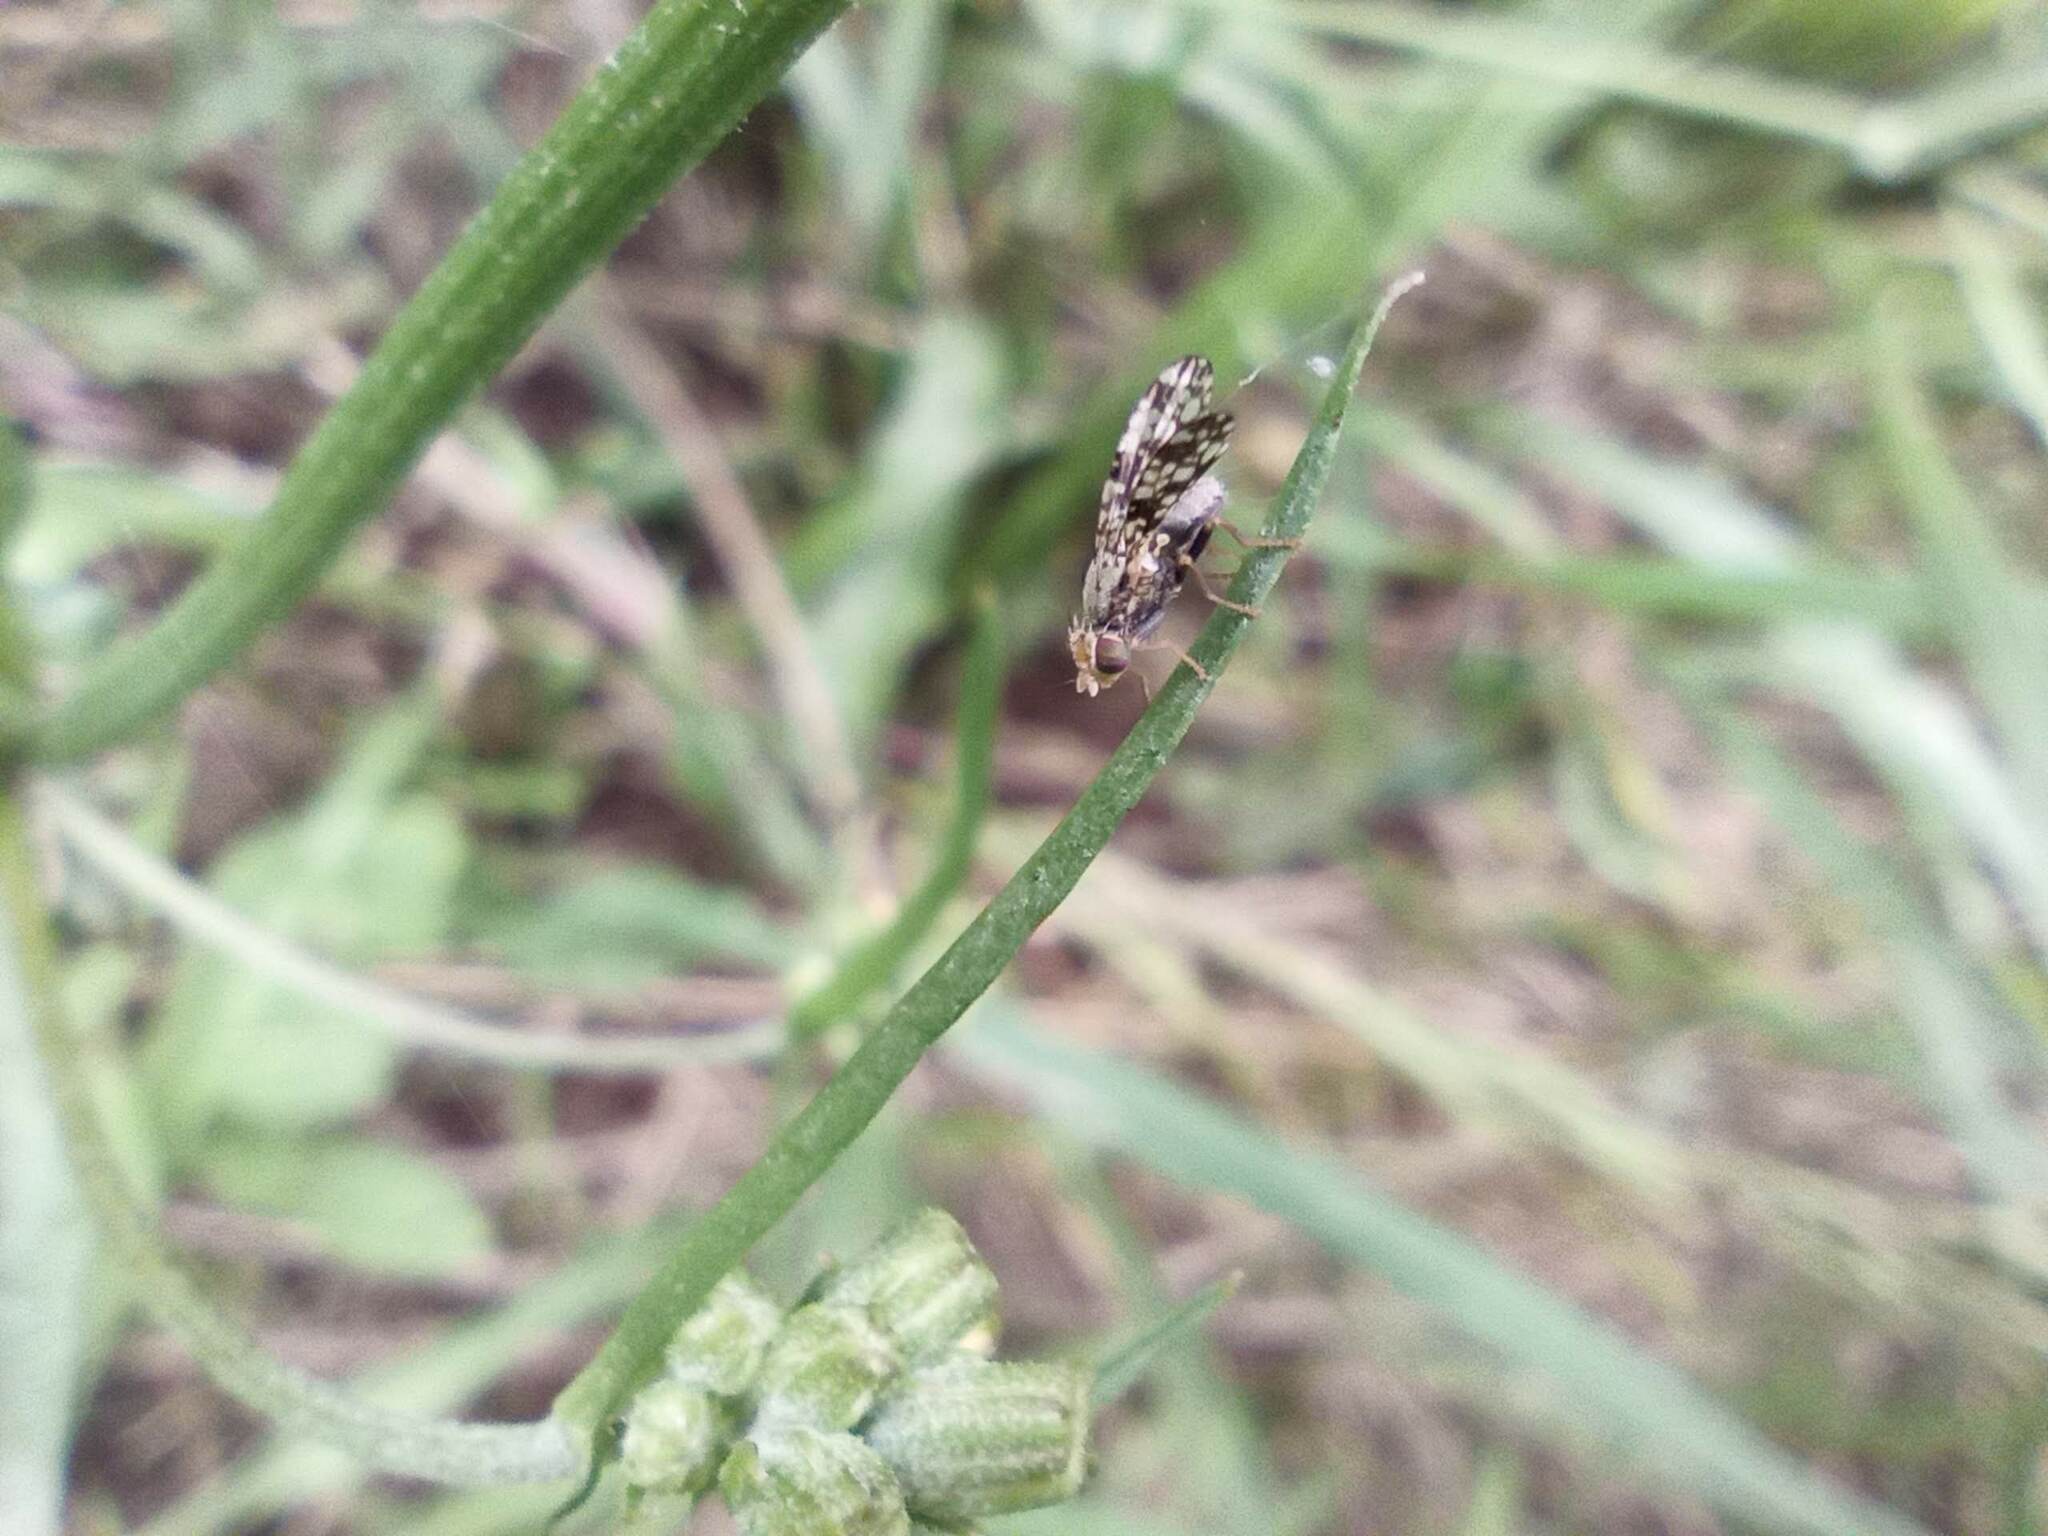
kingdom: Animalia
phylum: Arthropoda
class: Insecta
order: Diptera
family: Tephritidae
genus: Tephritis
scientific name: Tephritis formosa
